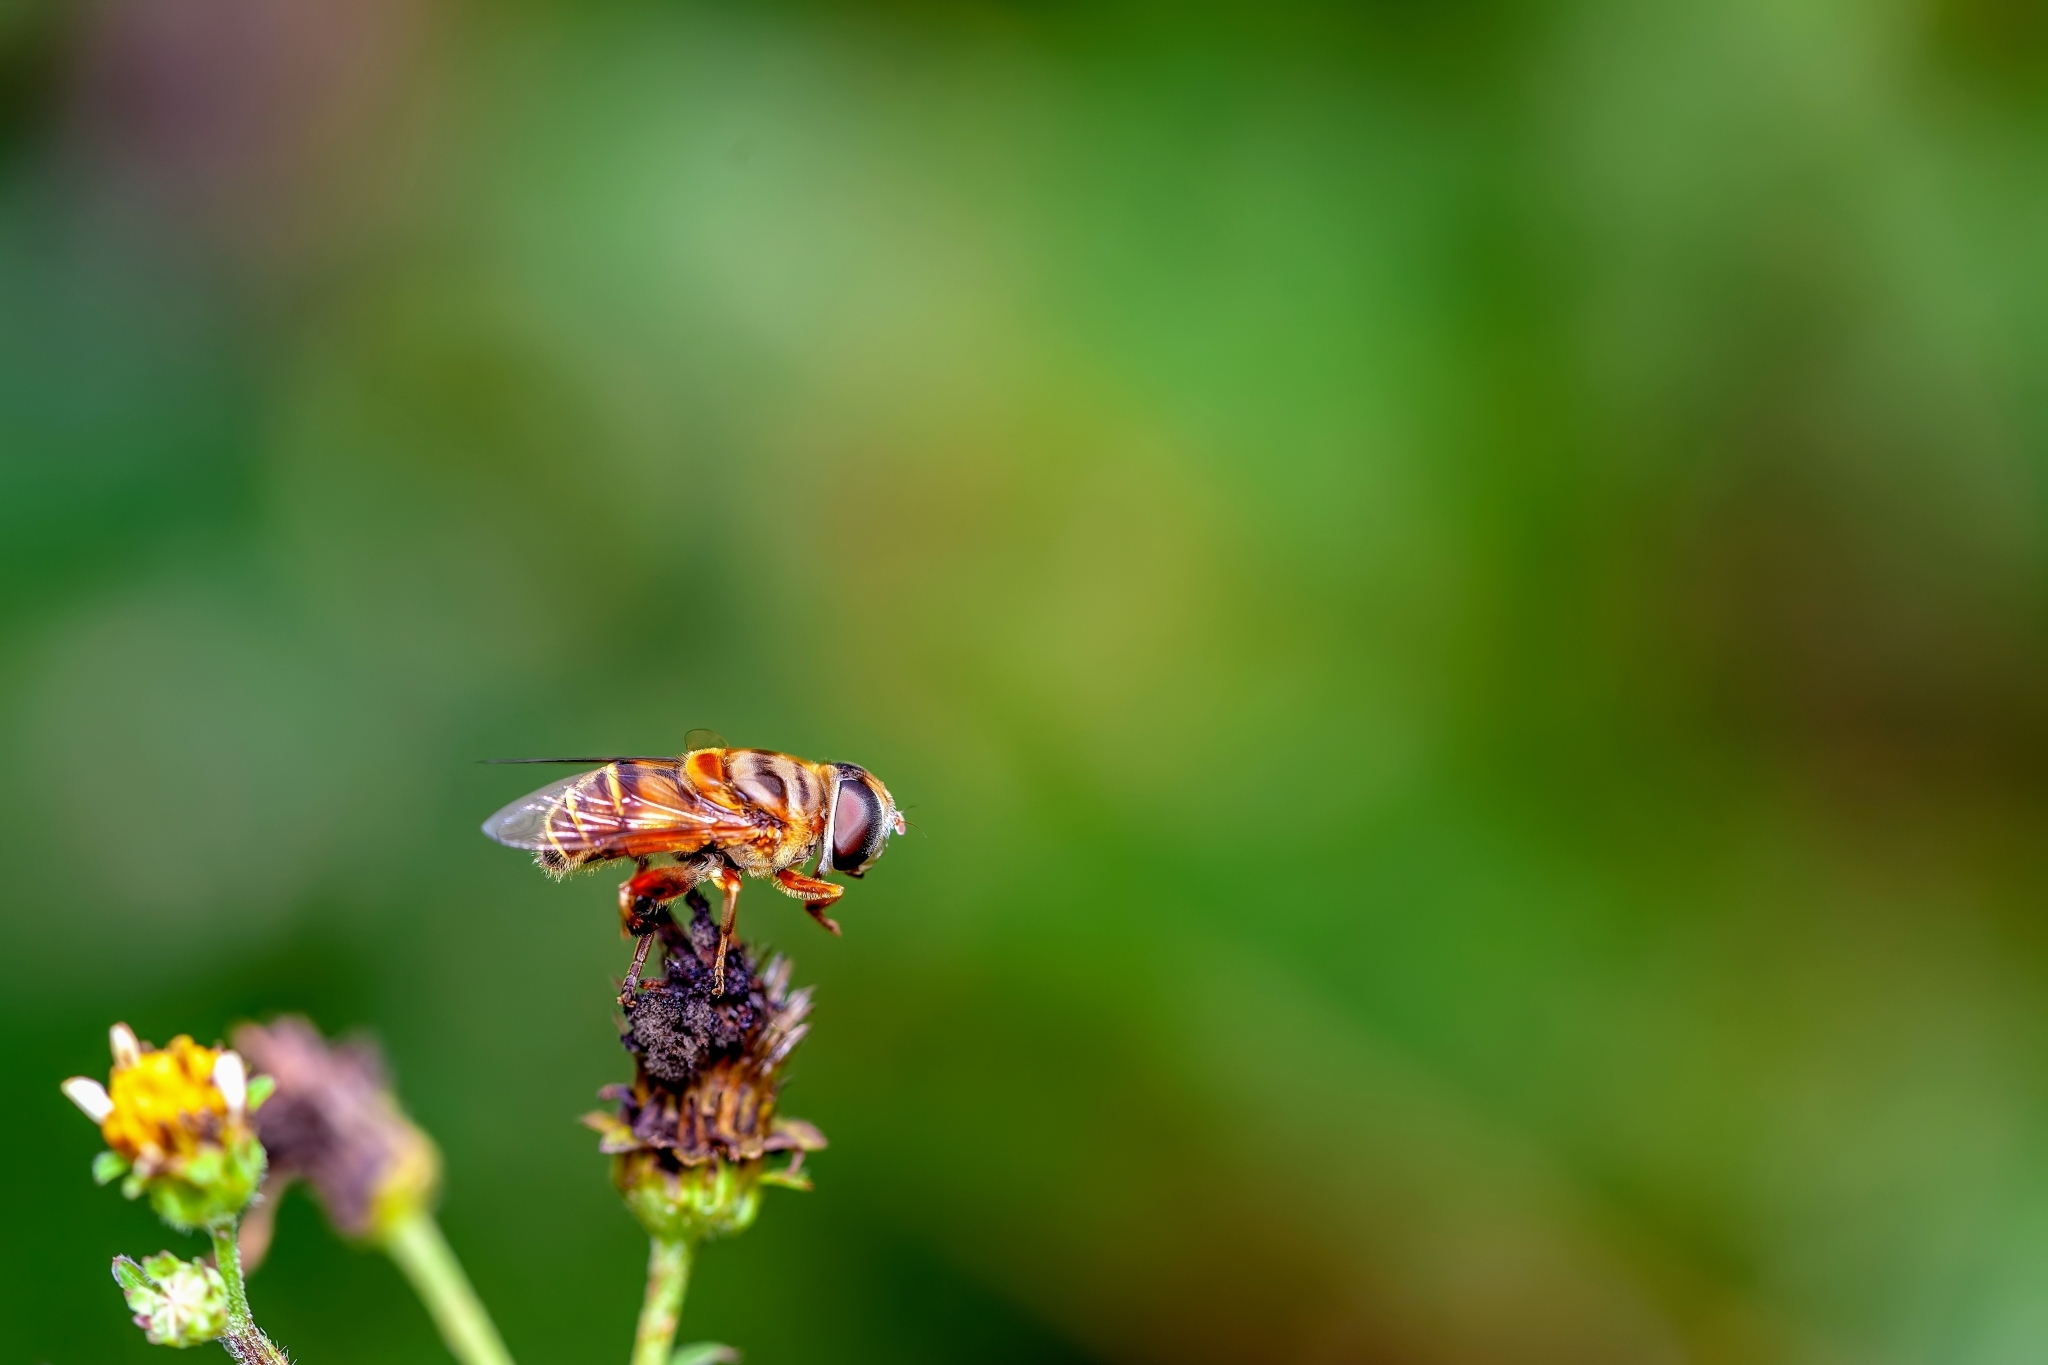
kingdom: Animalia
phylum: Arthropoda
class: Insecta
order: Diptera
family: Syrphidae
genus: Palpada
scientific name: Palpada vinetorum
